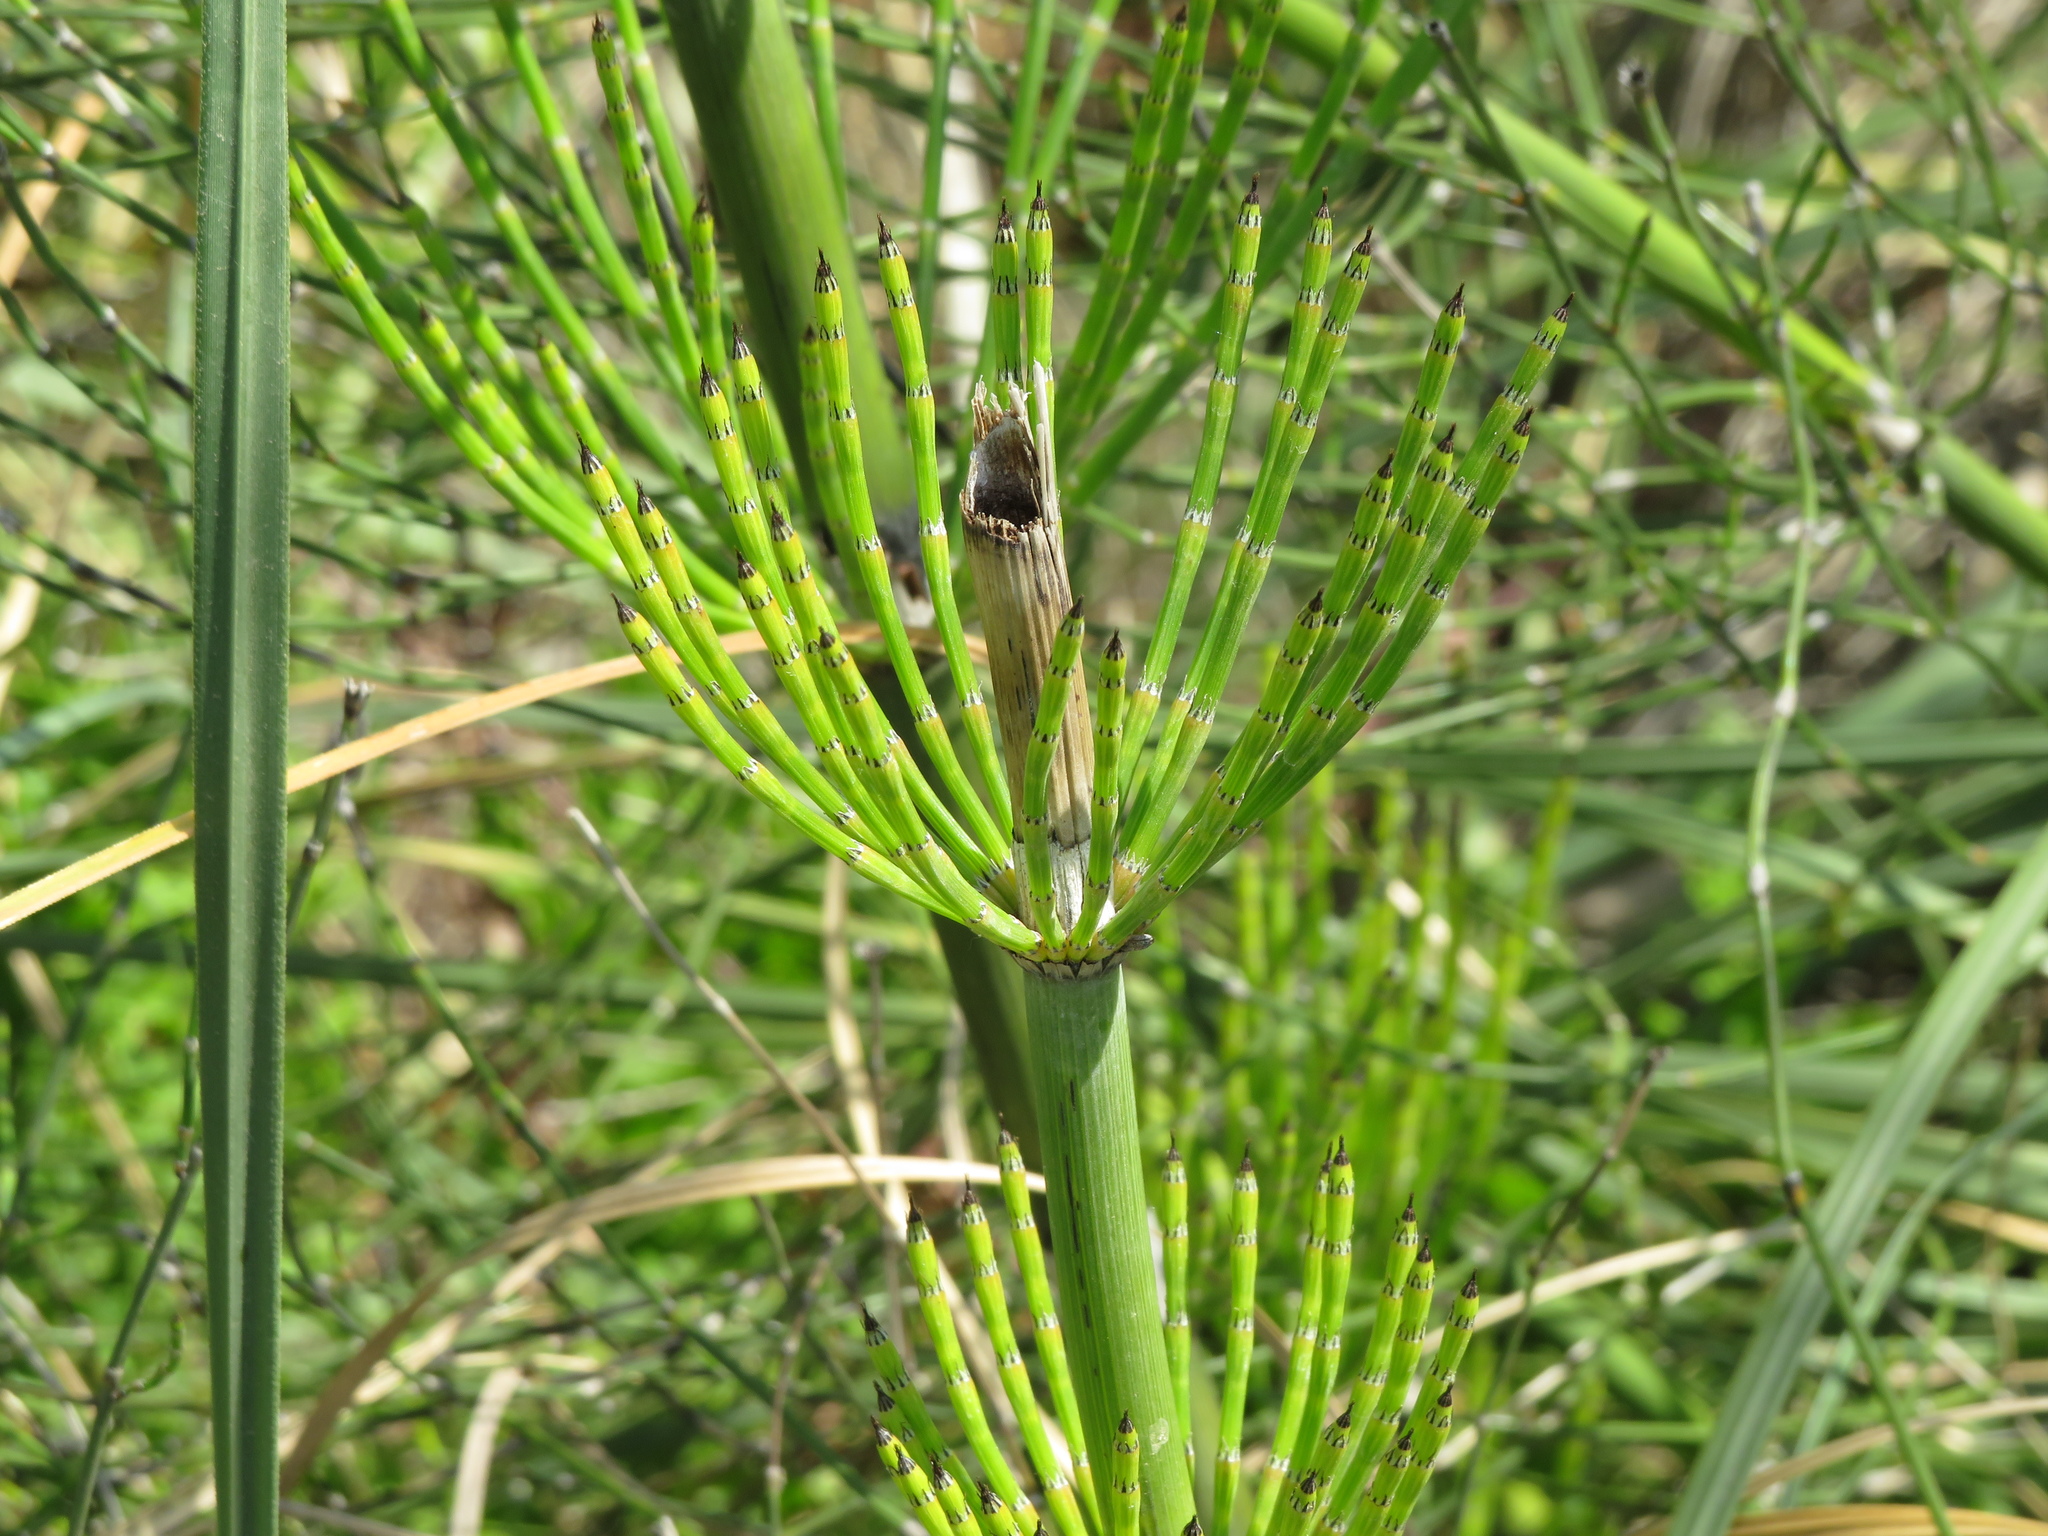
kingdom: Plantae
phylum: Tracheophyta
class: Polypodiopsida
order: Equisetales
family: Equisetaceae
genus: Equisetum
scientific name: Equisetum giganteum
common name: Giant horsetail
